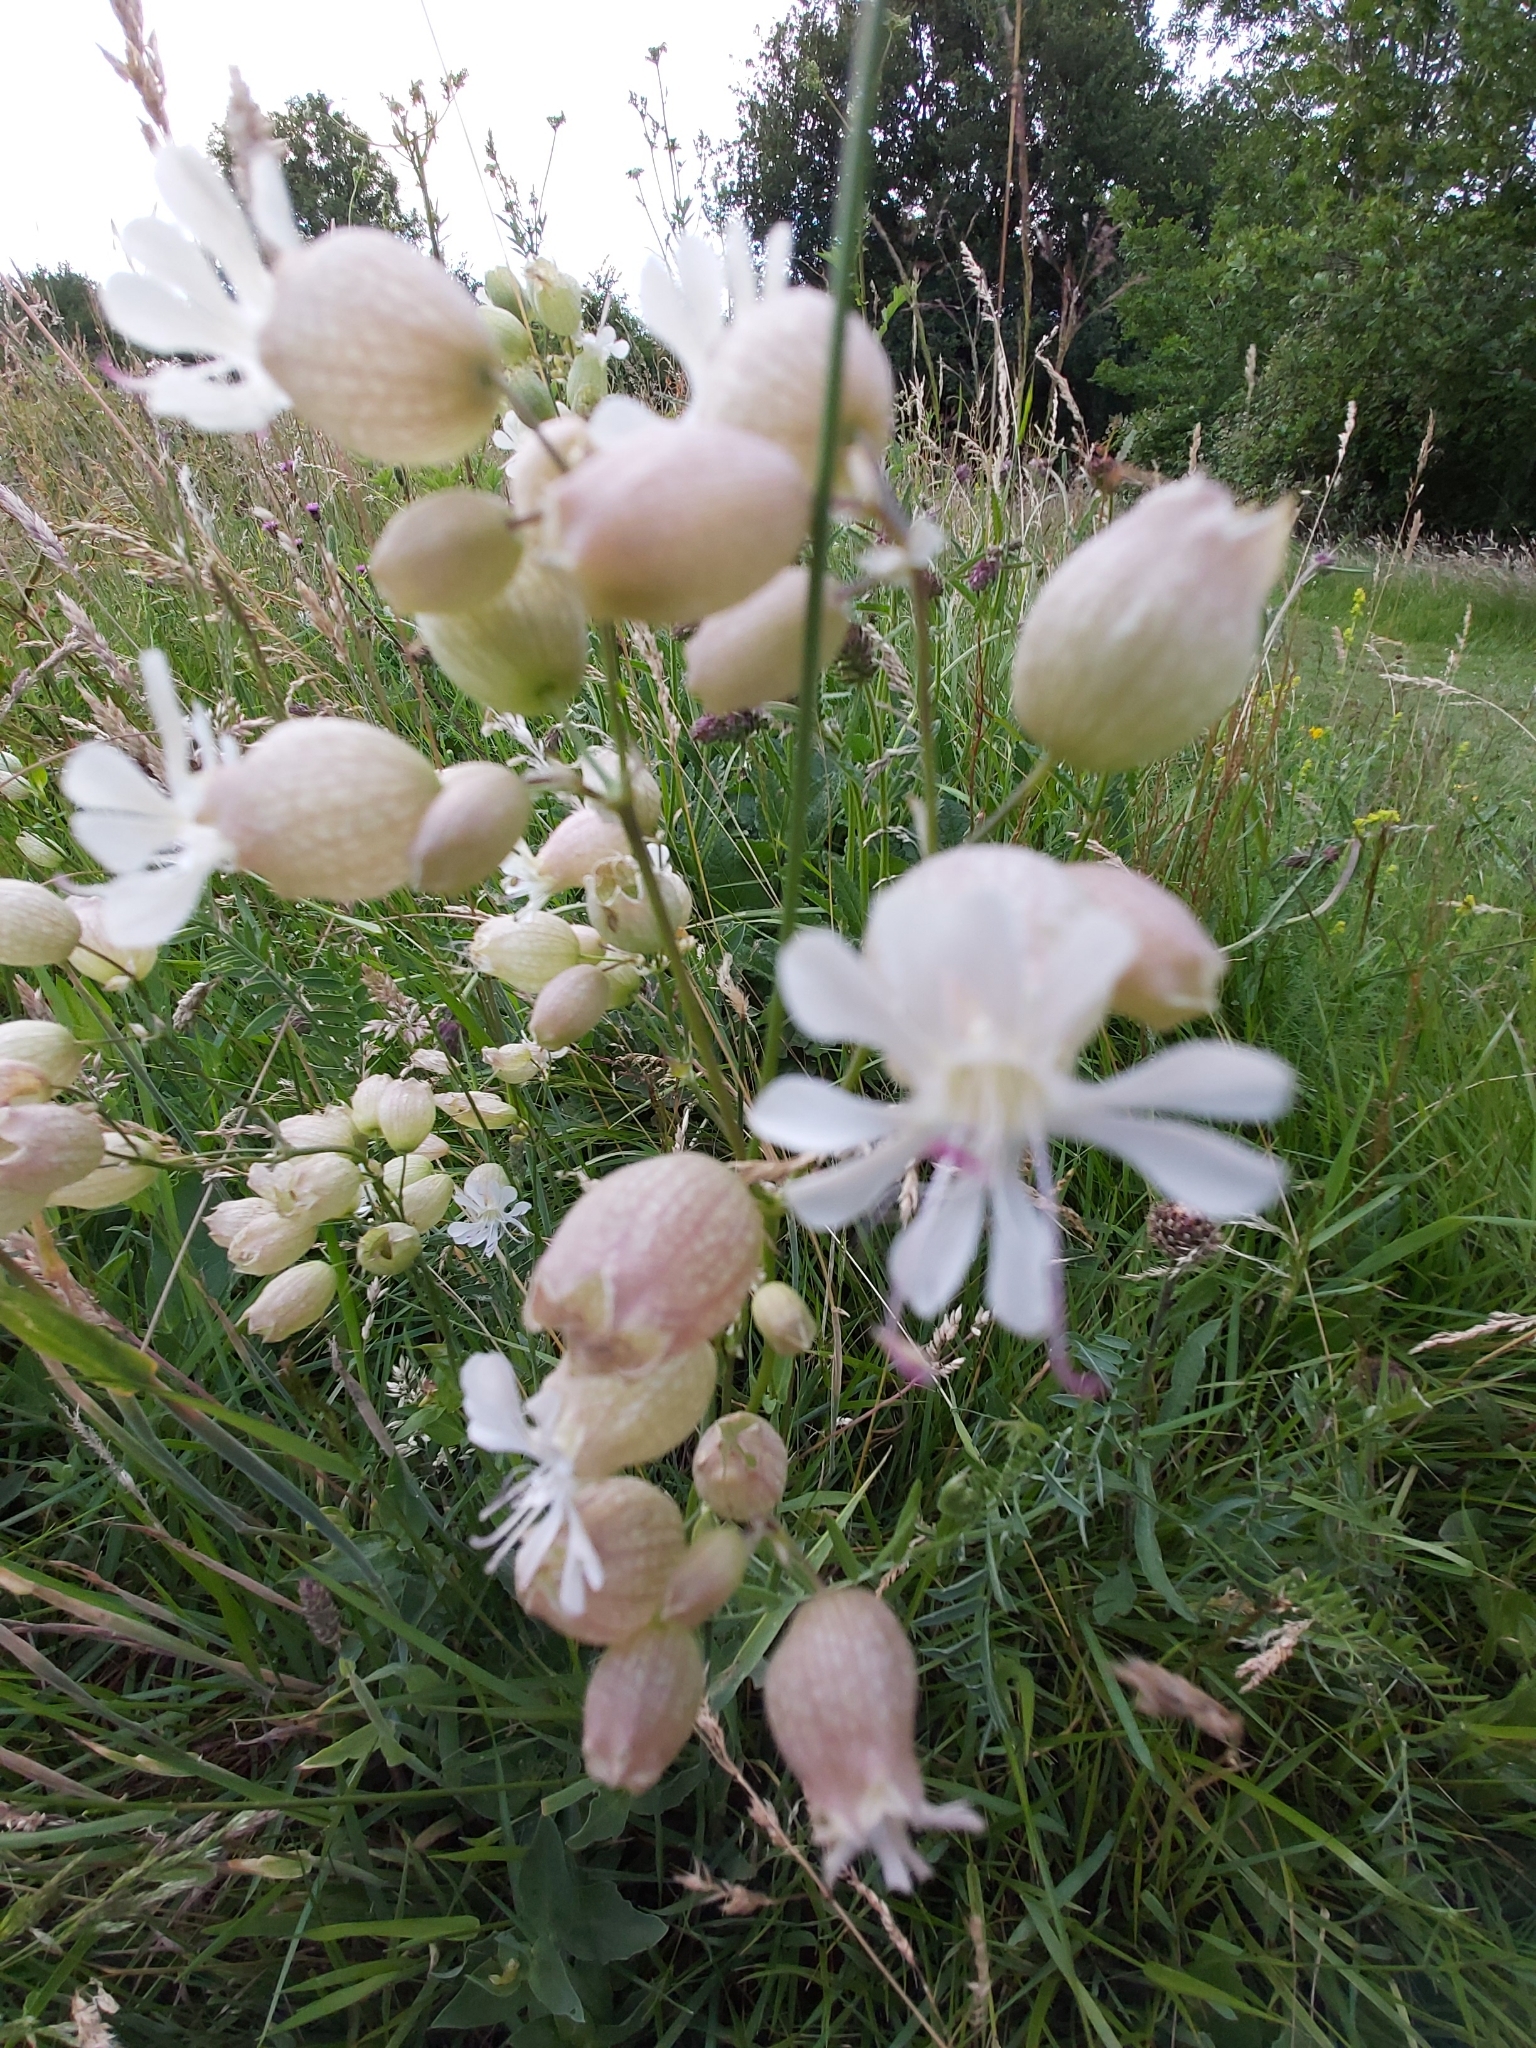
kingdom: Plantae
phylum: Tracheophyta
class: Magnoliopsida
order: Caryophyllales
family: Caryophyllaceae
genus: Silene
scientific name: Silene vulgaris
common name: Bladder campion
